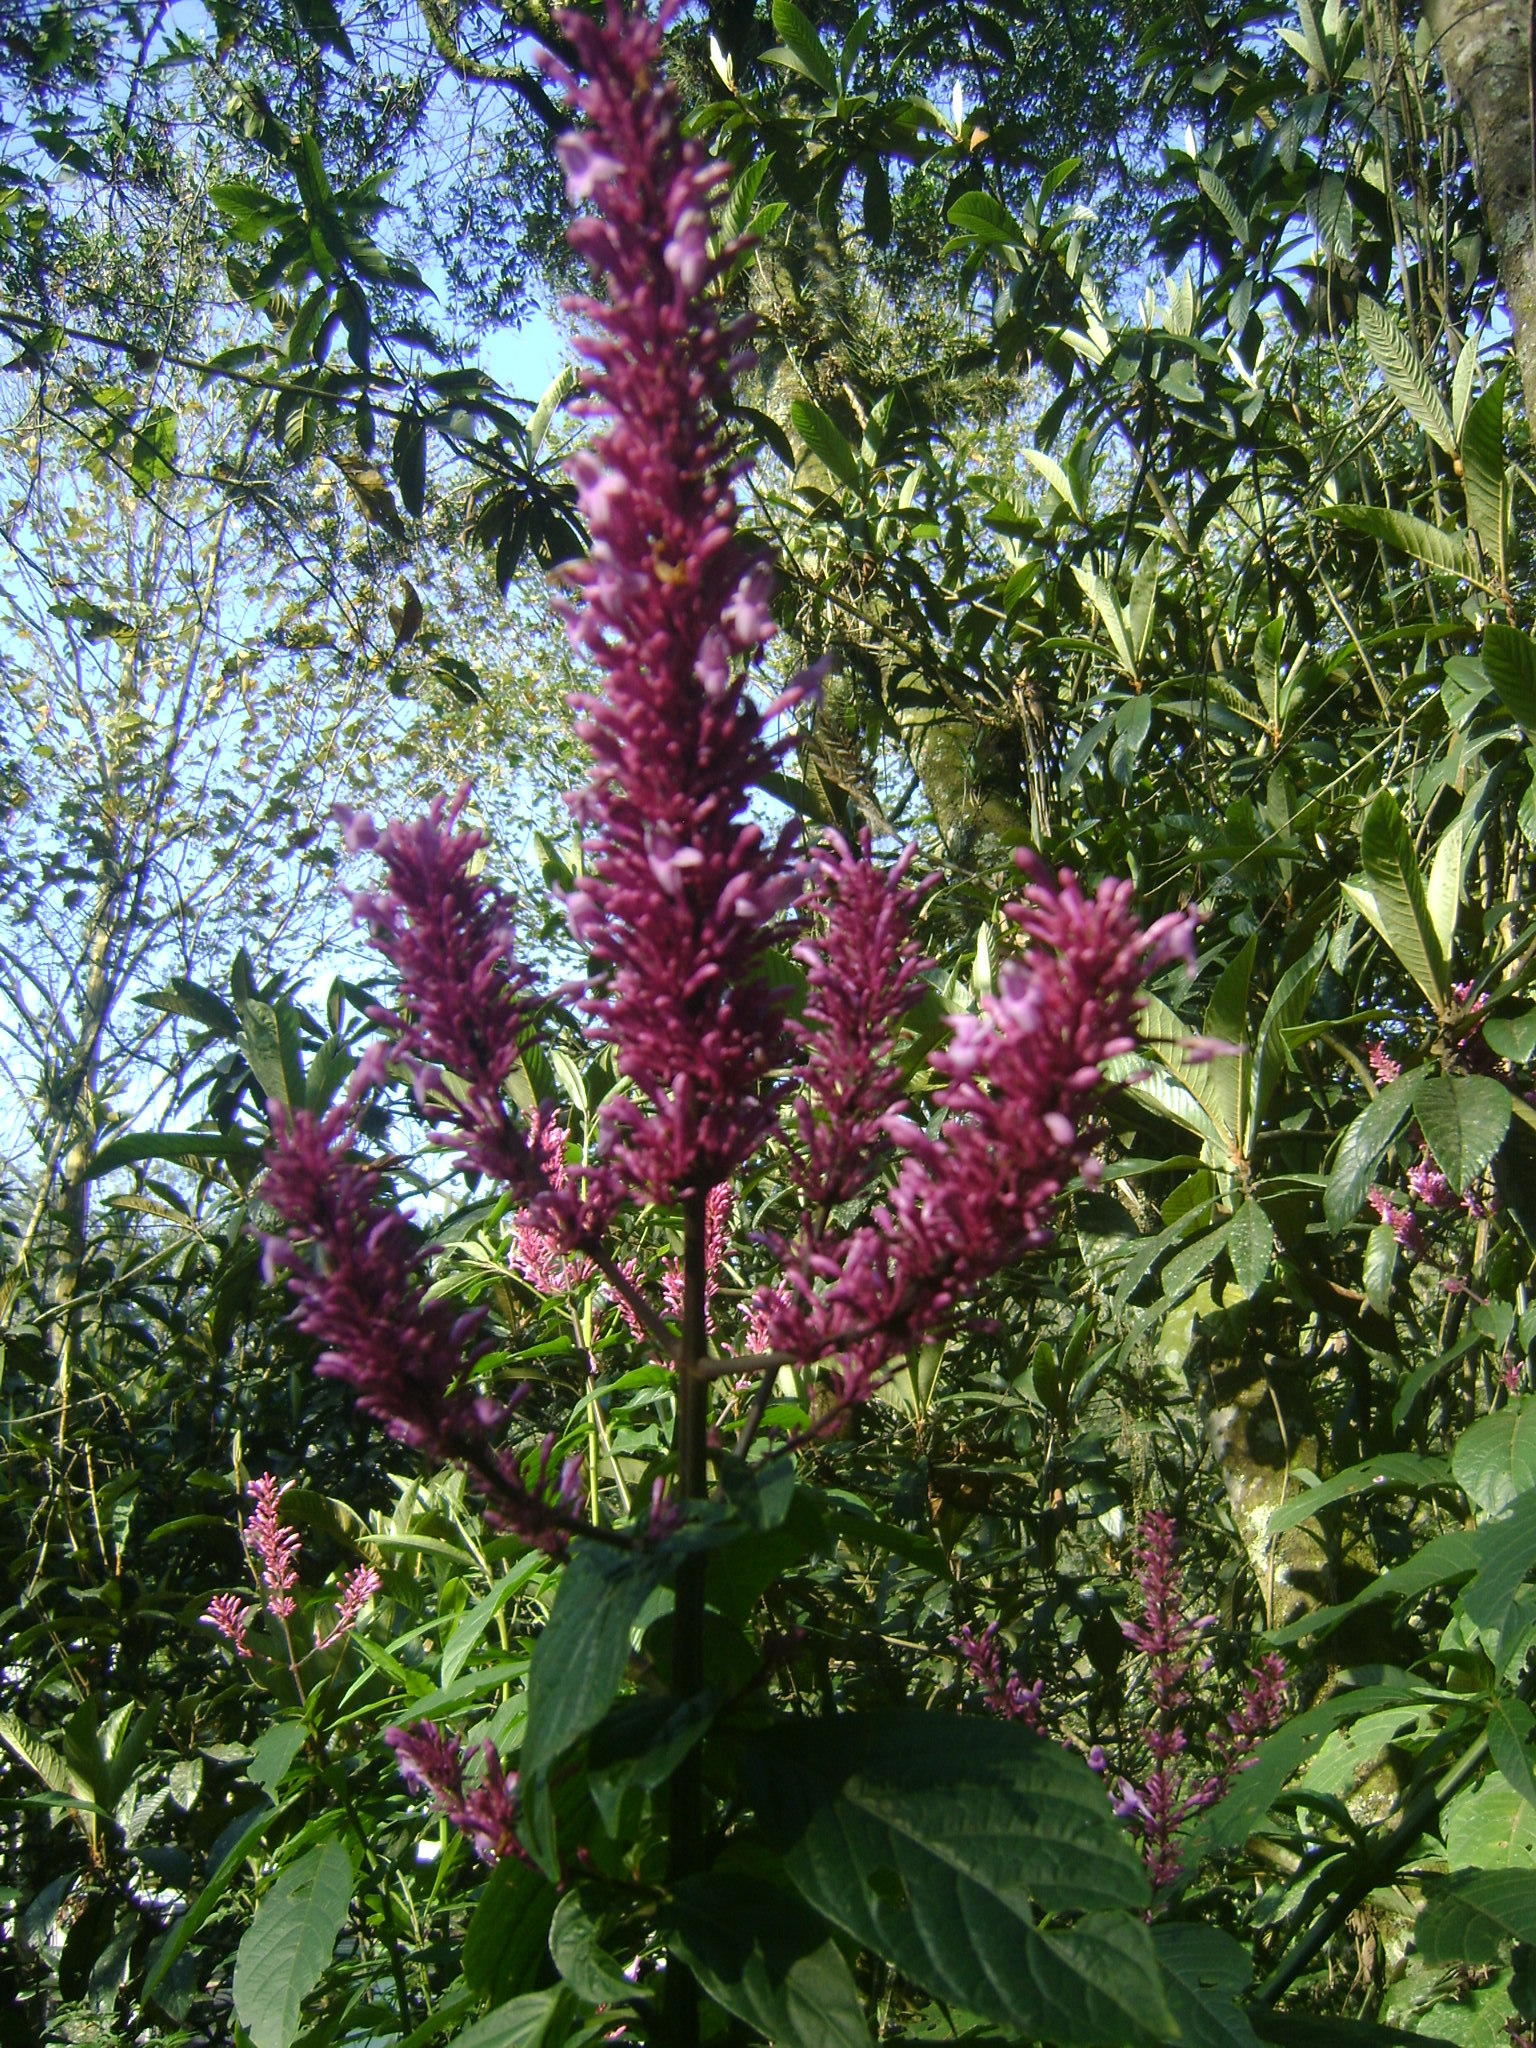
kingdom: Plantae
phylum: Tracheophyta
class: Magnoliopsida
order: Lamiales
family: Acanthaceae
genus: Odontonema
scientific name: Odontonema callistachyum
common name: Firespike
